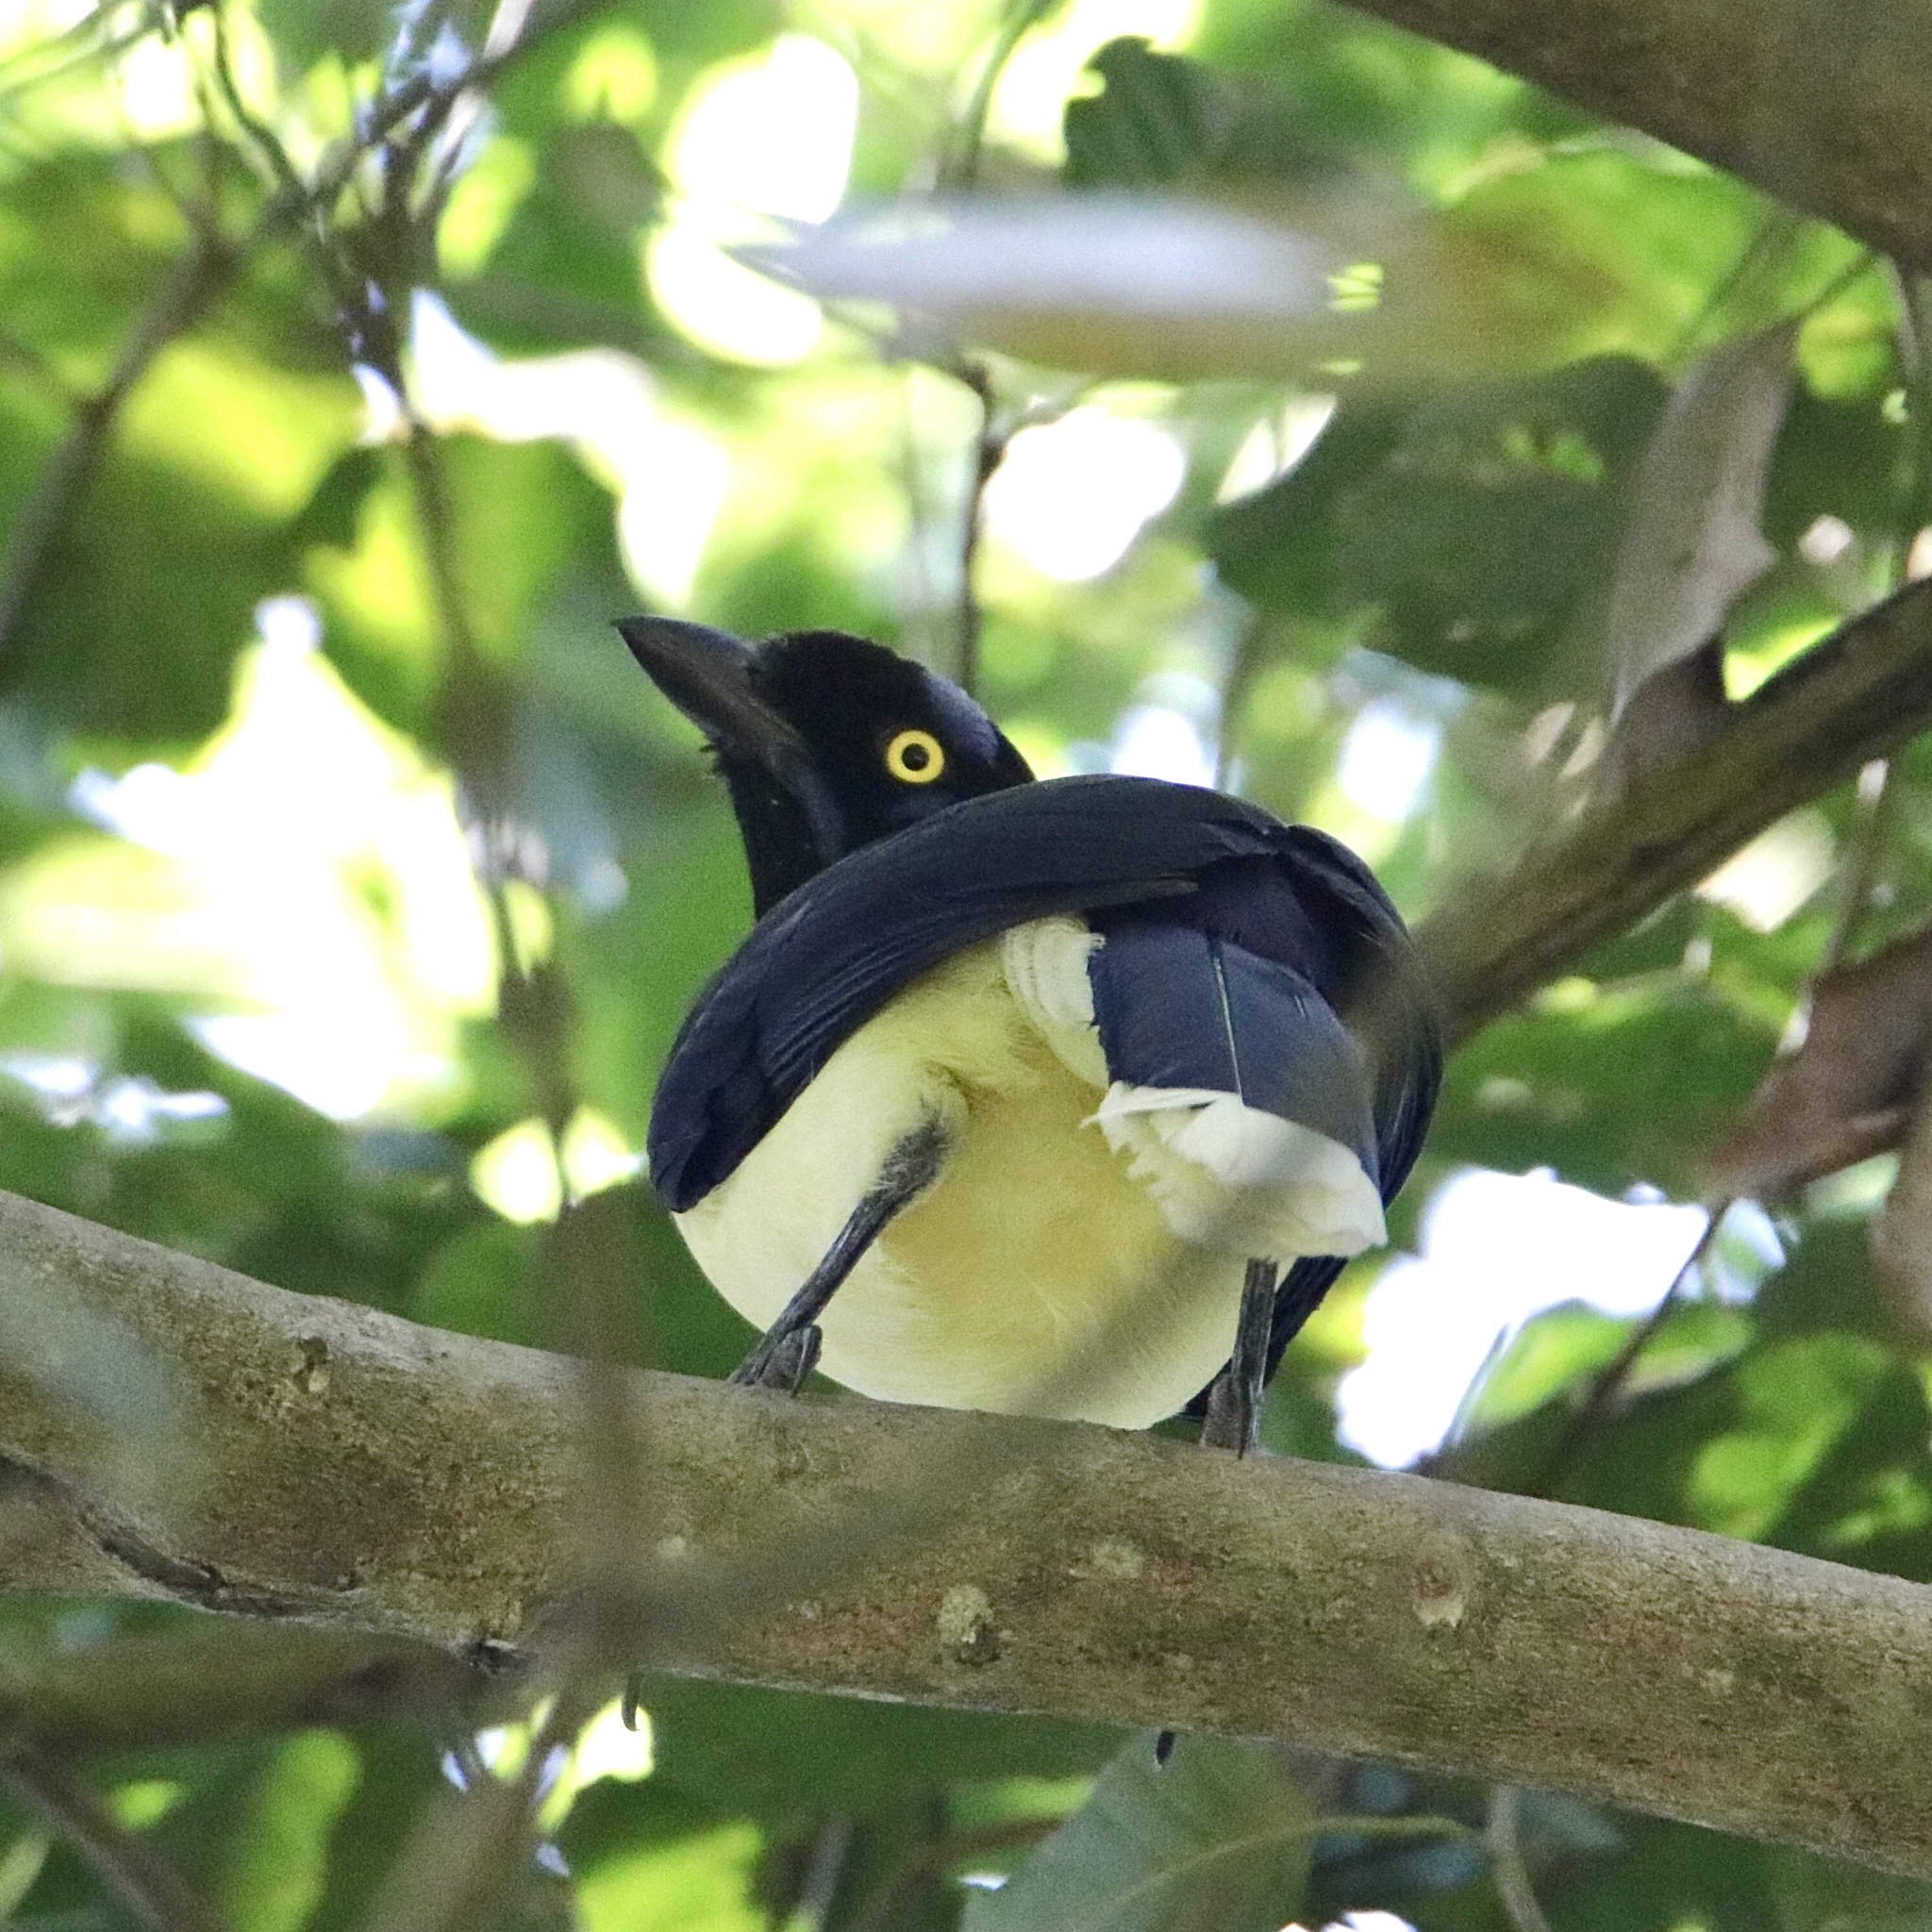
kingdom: Animalia
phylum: Chordata
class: Aves
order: Passeriformes
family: Corvidae
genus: Cyanocorax
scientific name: Cyanocorax affinis
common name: Black-chested jay
